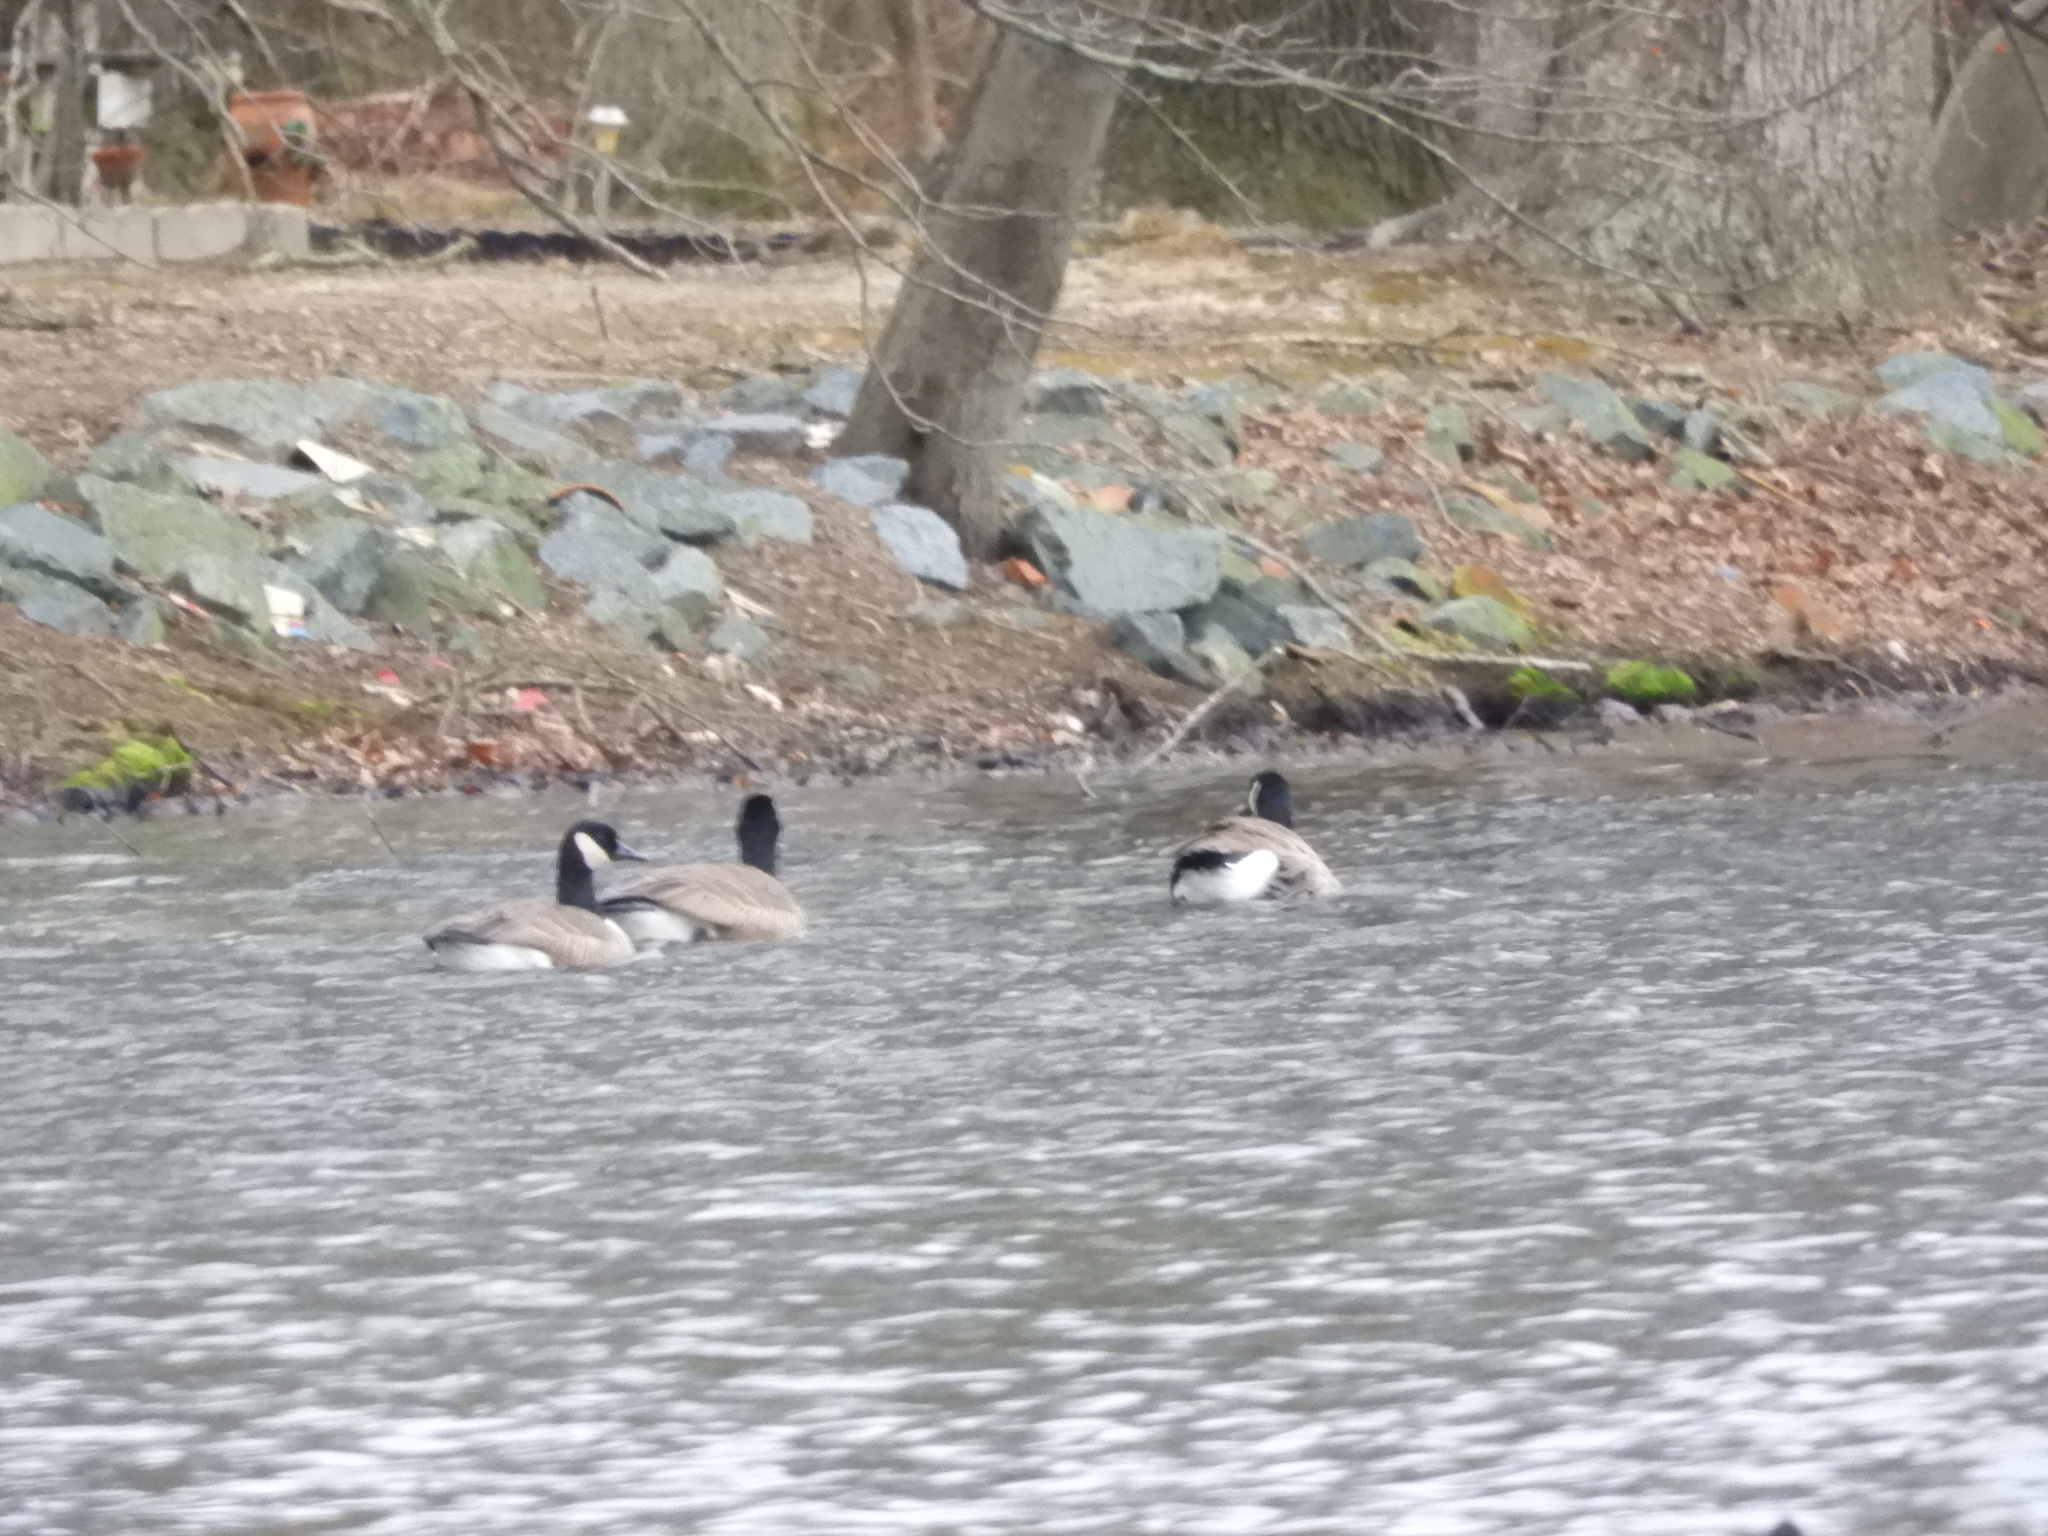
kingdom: Animalia
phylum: Chordata
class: Aves
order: Anseriformes
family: Anatidae
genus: Branta
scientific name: Branta canadensis
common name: Canada goose
